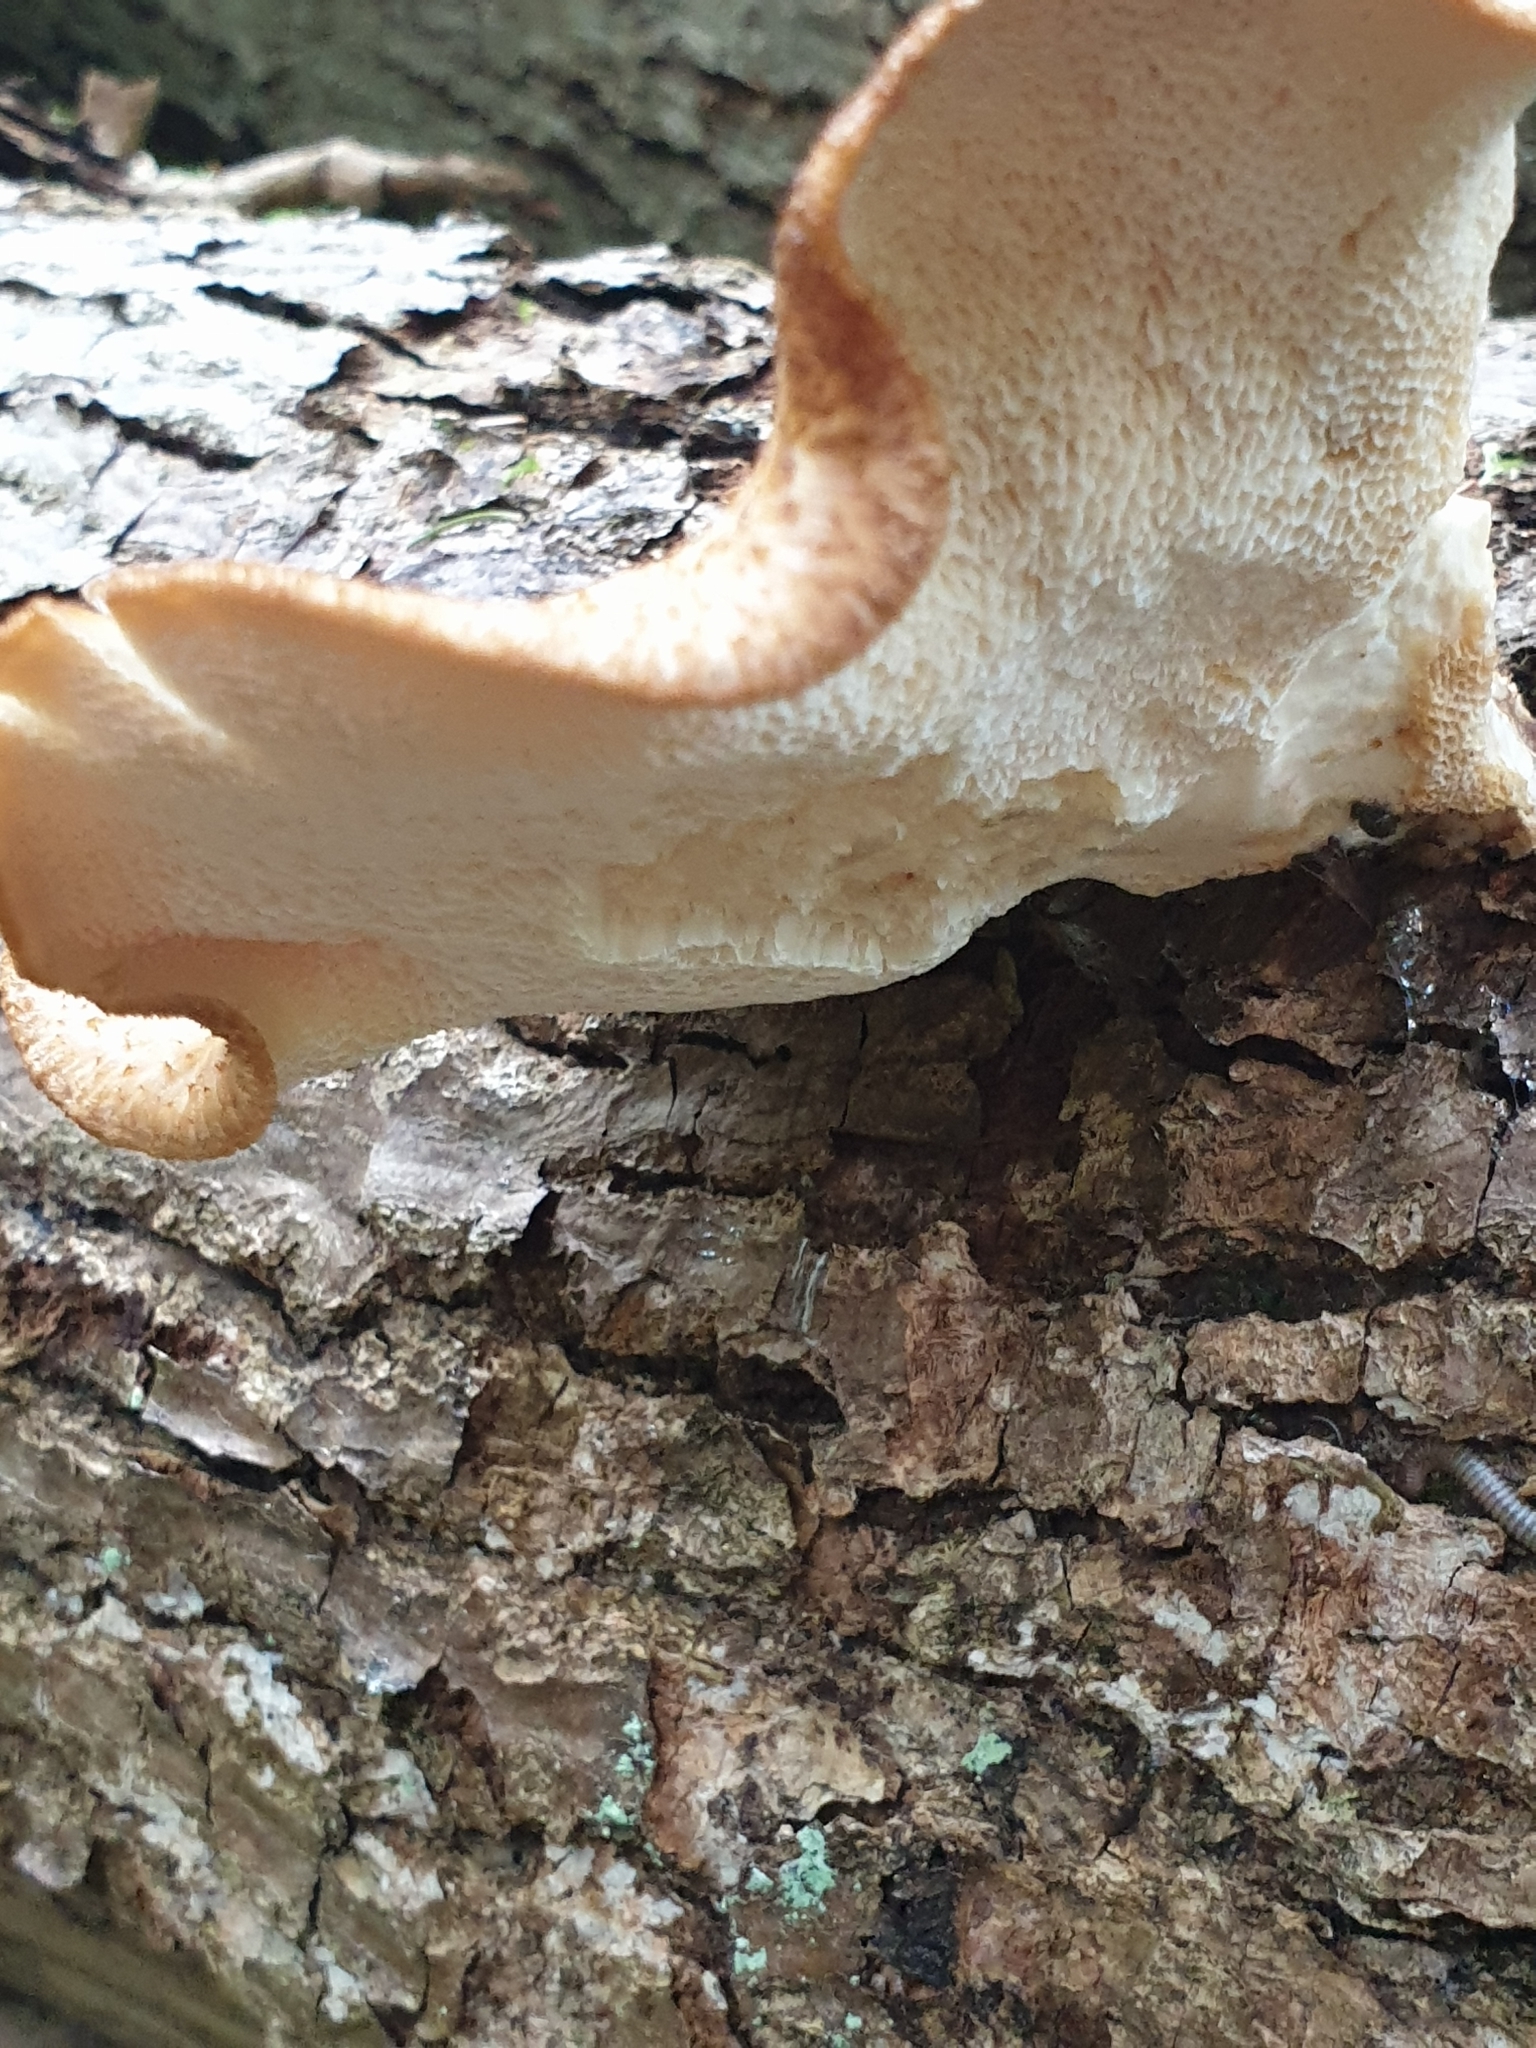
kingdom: Fungi
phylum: Basidiomycota
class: Agaricomycetes
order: Polyporales
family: Polyporaceae
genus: Cerioporus
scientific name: Cerioporus squamosus
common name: Dryad's saddle
